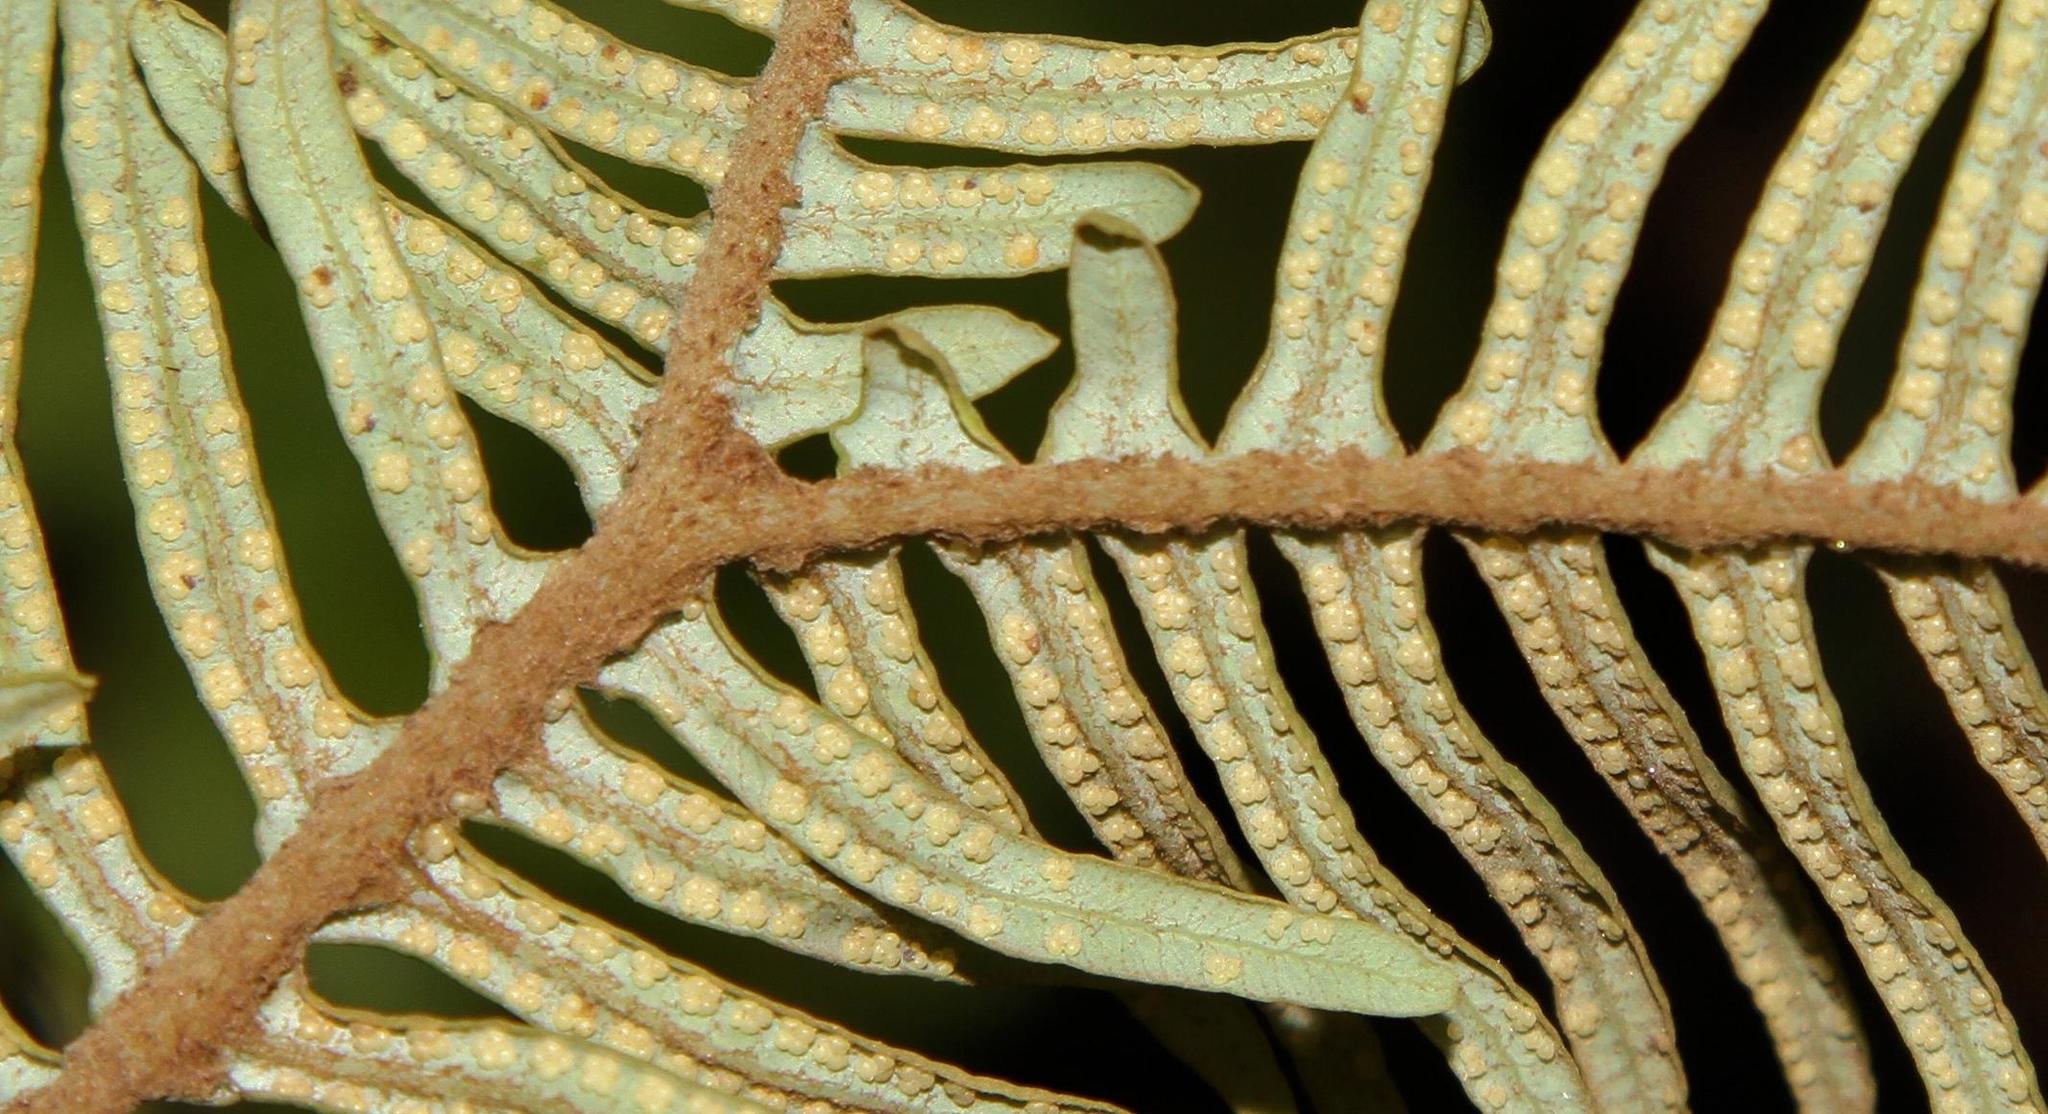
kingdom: Plantae
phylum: Tracheophyta
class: Polypodiopsida
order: Gleicheniales
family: Gleicheniaceae
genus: Sticherus
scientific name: Sticherus umbraculifer
